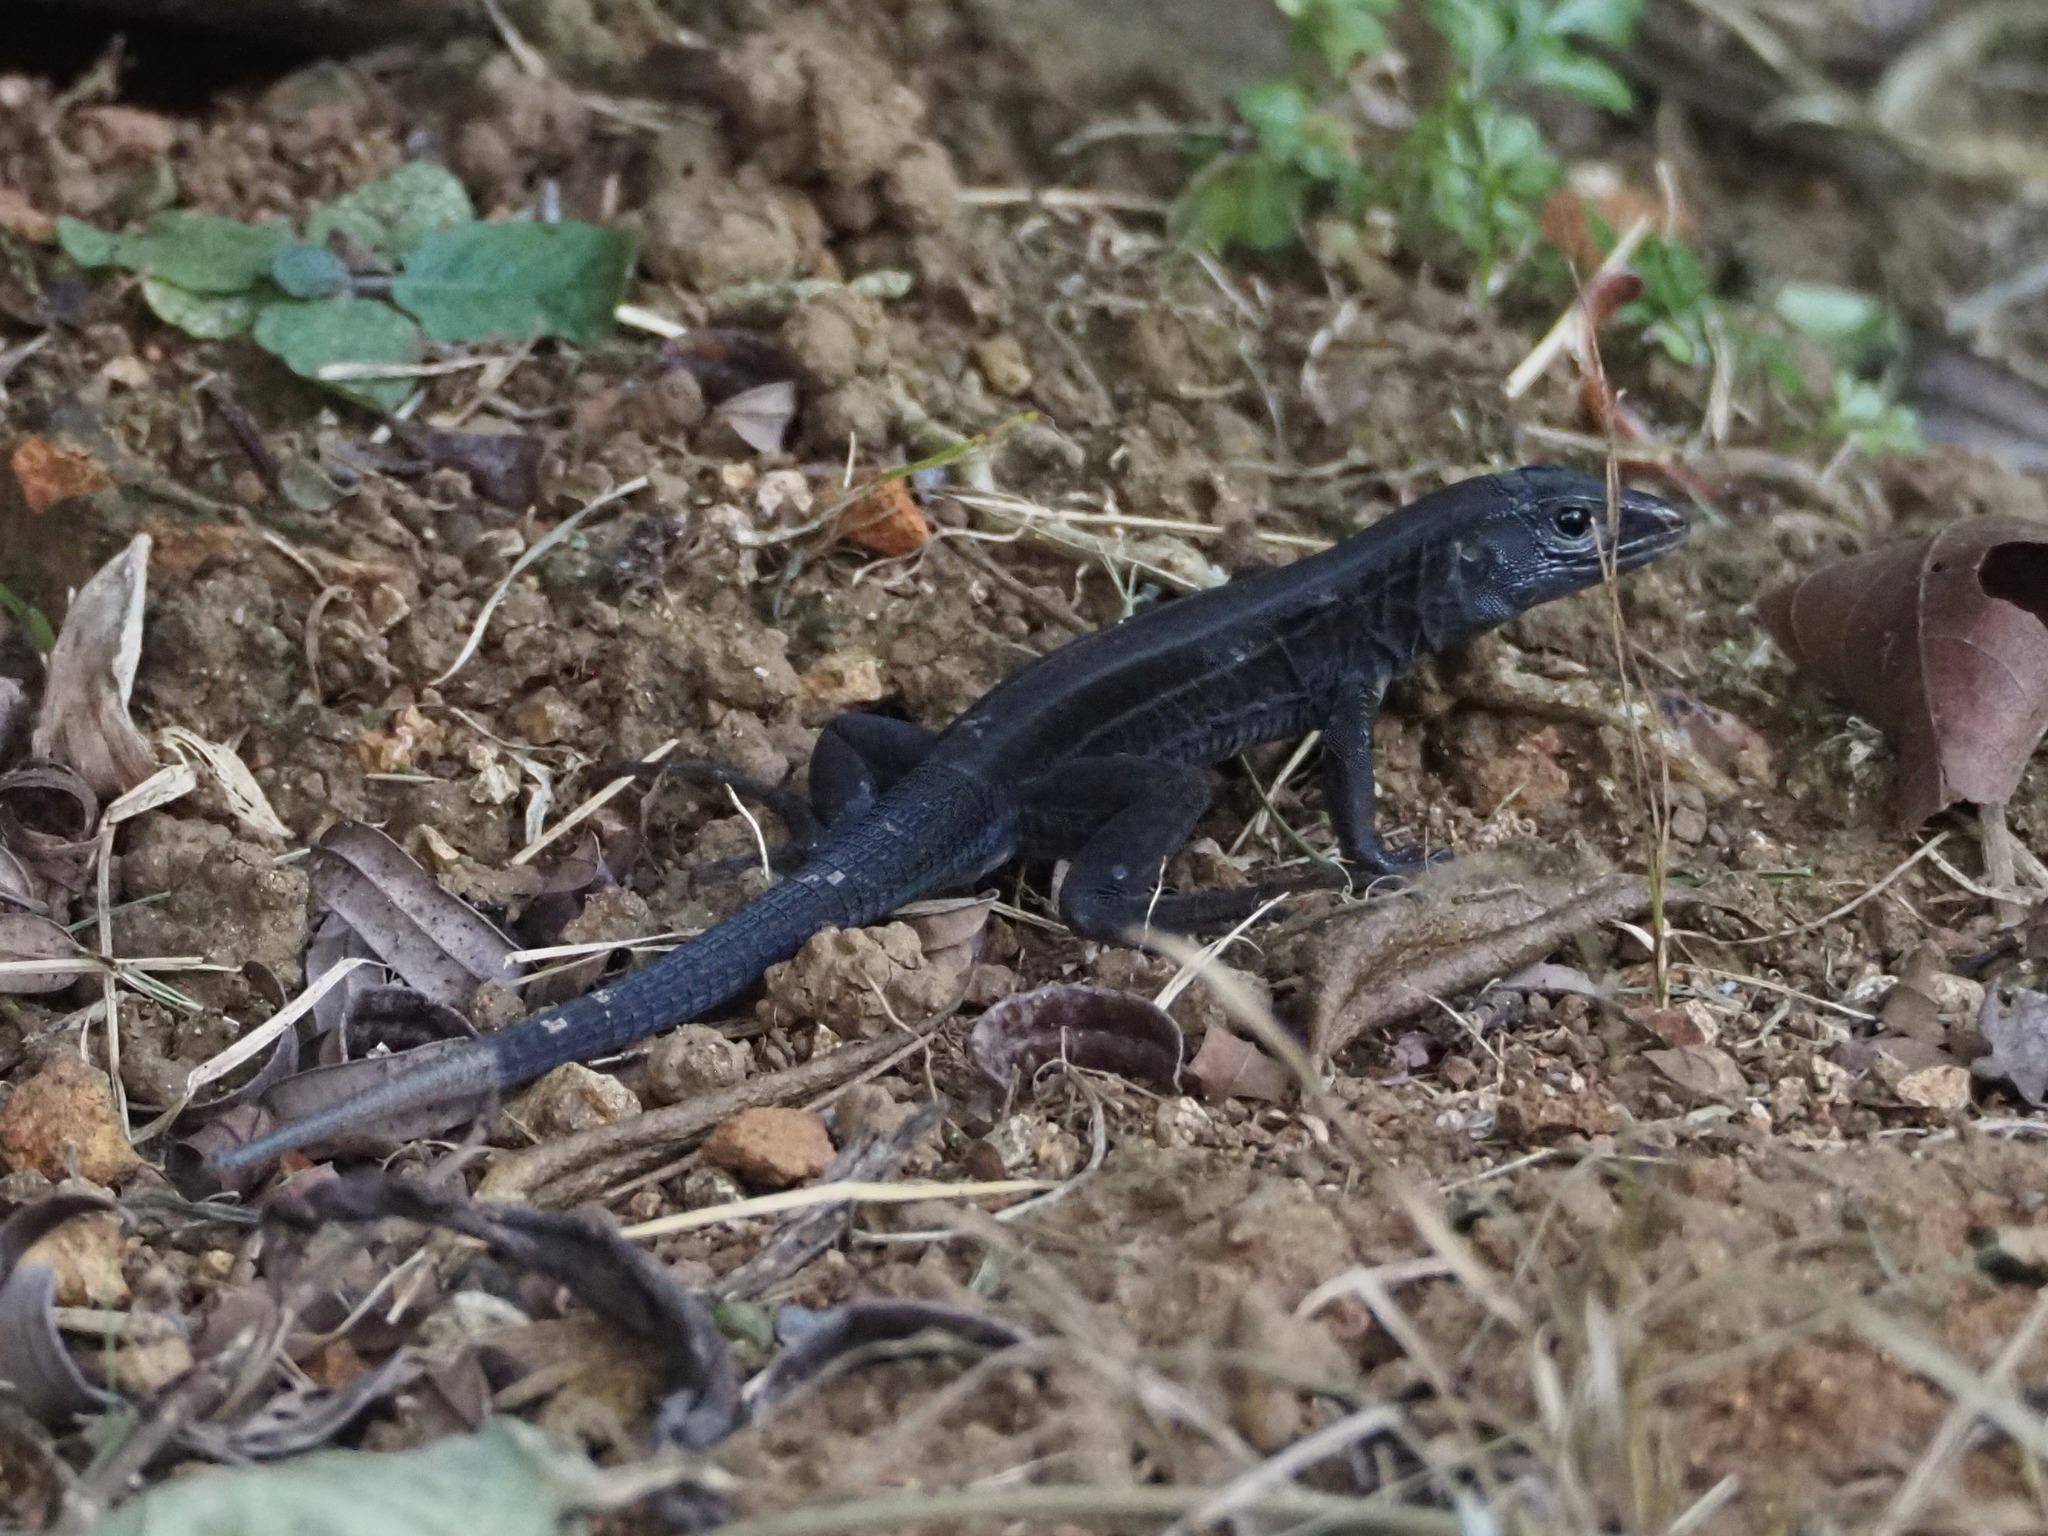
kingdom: Animalia
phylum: Chordata
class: Squamata
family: Teiidae
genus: Holcosus
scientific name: Holcosus quadrilineatus
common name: Four-lined ameiva
